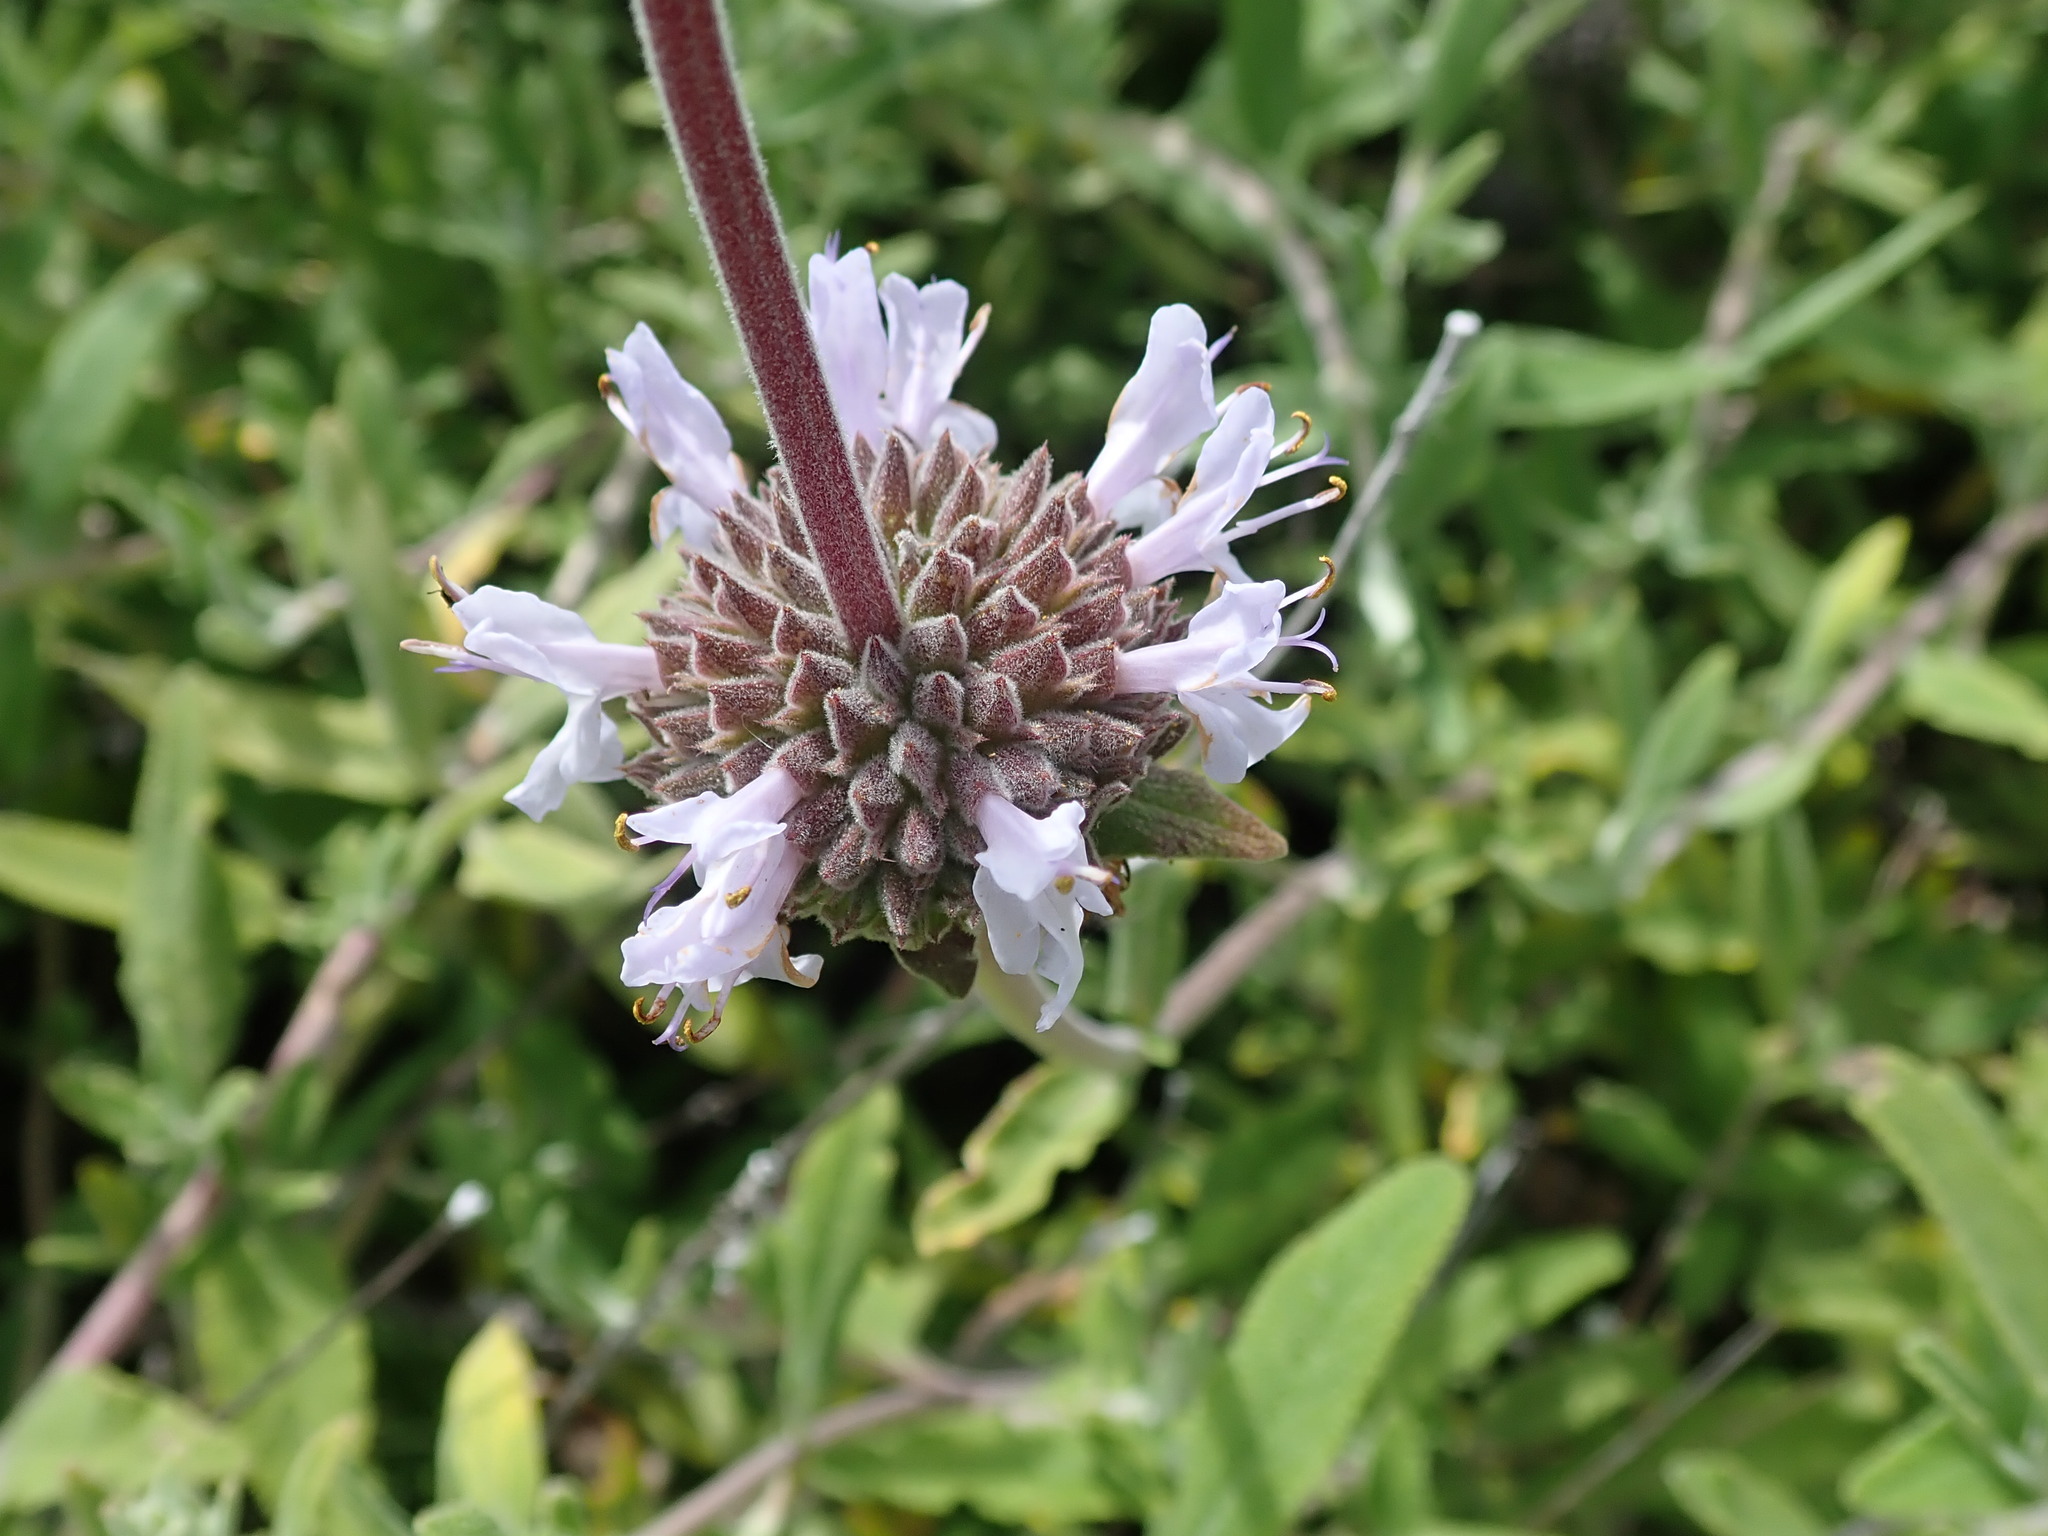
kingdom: Plantae
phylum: Tracheophyta
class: Magnoliopsida
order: Lamiales
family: Lamiaceae
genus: Salvia
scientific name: Salvia mellifera
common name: Black sage
